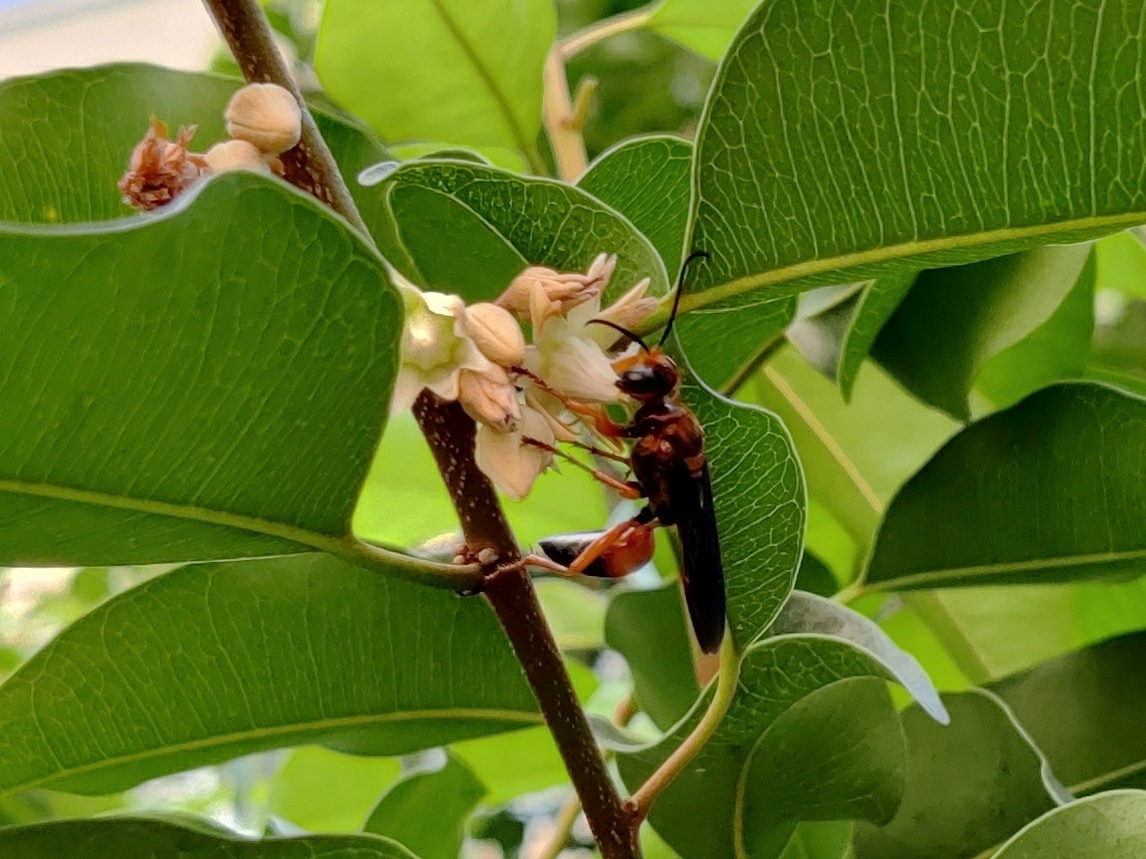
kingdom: Animalia
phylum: Arthropoda
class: Insecta
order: Hymenoptera
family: Sphecidae
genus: Sphex
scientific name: Sphex sericeus
